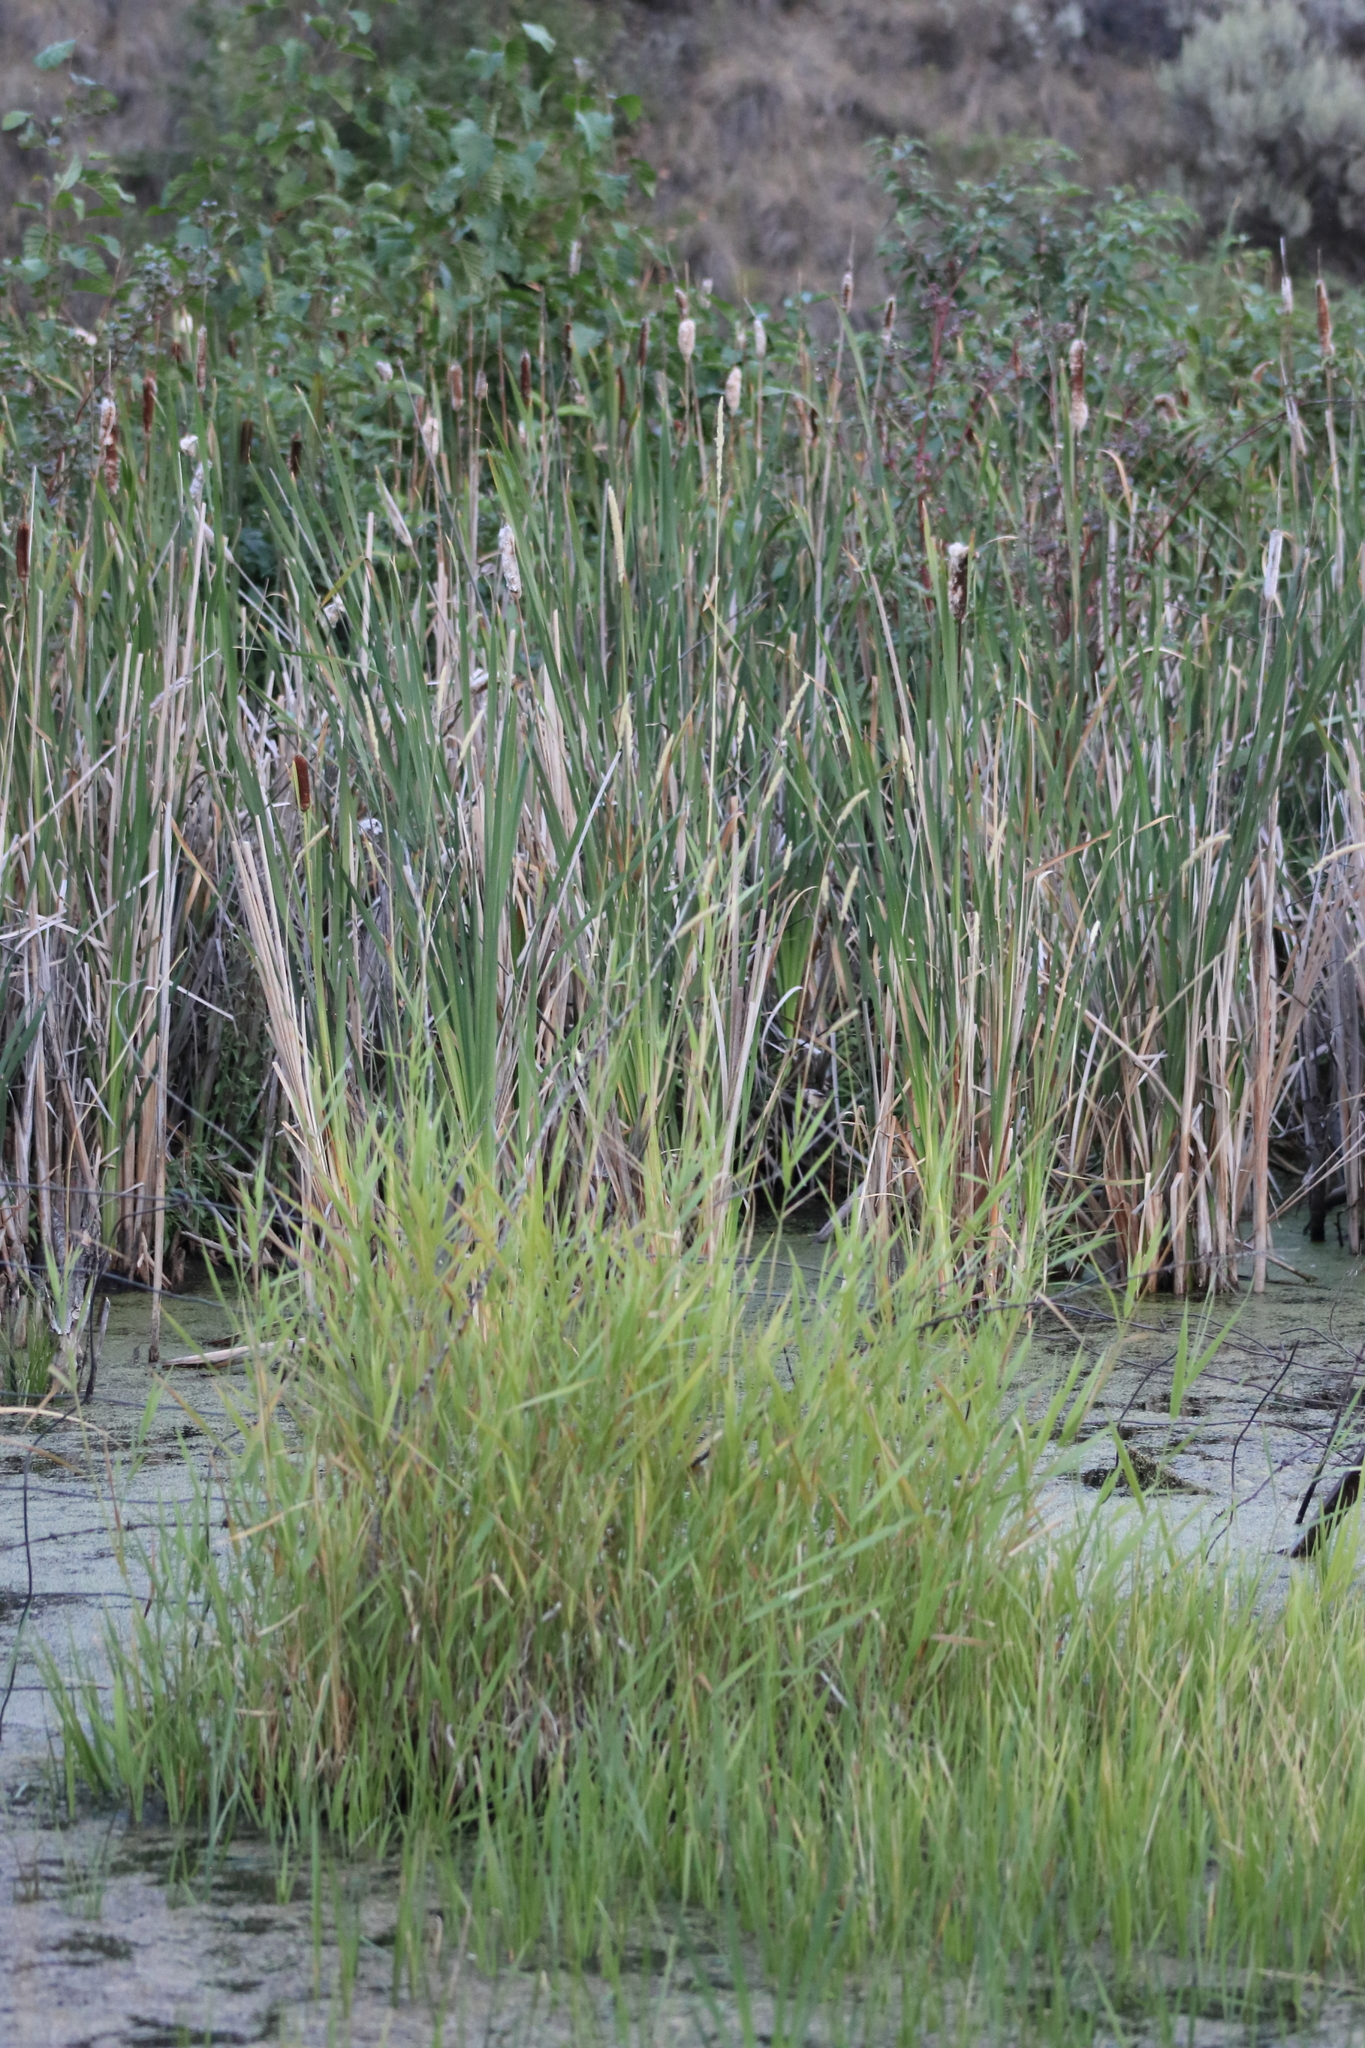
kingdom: Plantae
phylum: Tracheophyta
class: Liliopsida
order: Poales
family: Poaceae
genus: Phalaris
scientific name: Phalaris arundinacea
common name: Reed canary-grass
